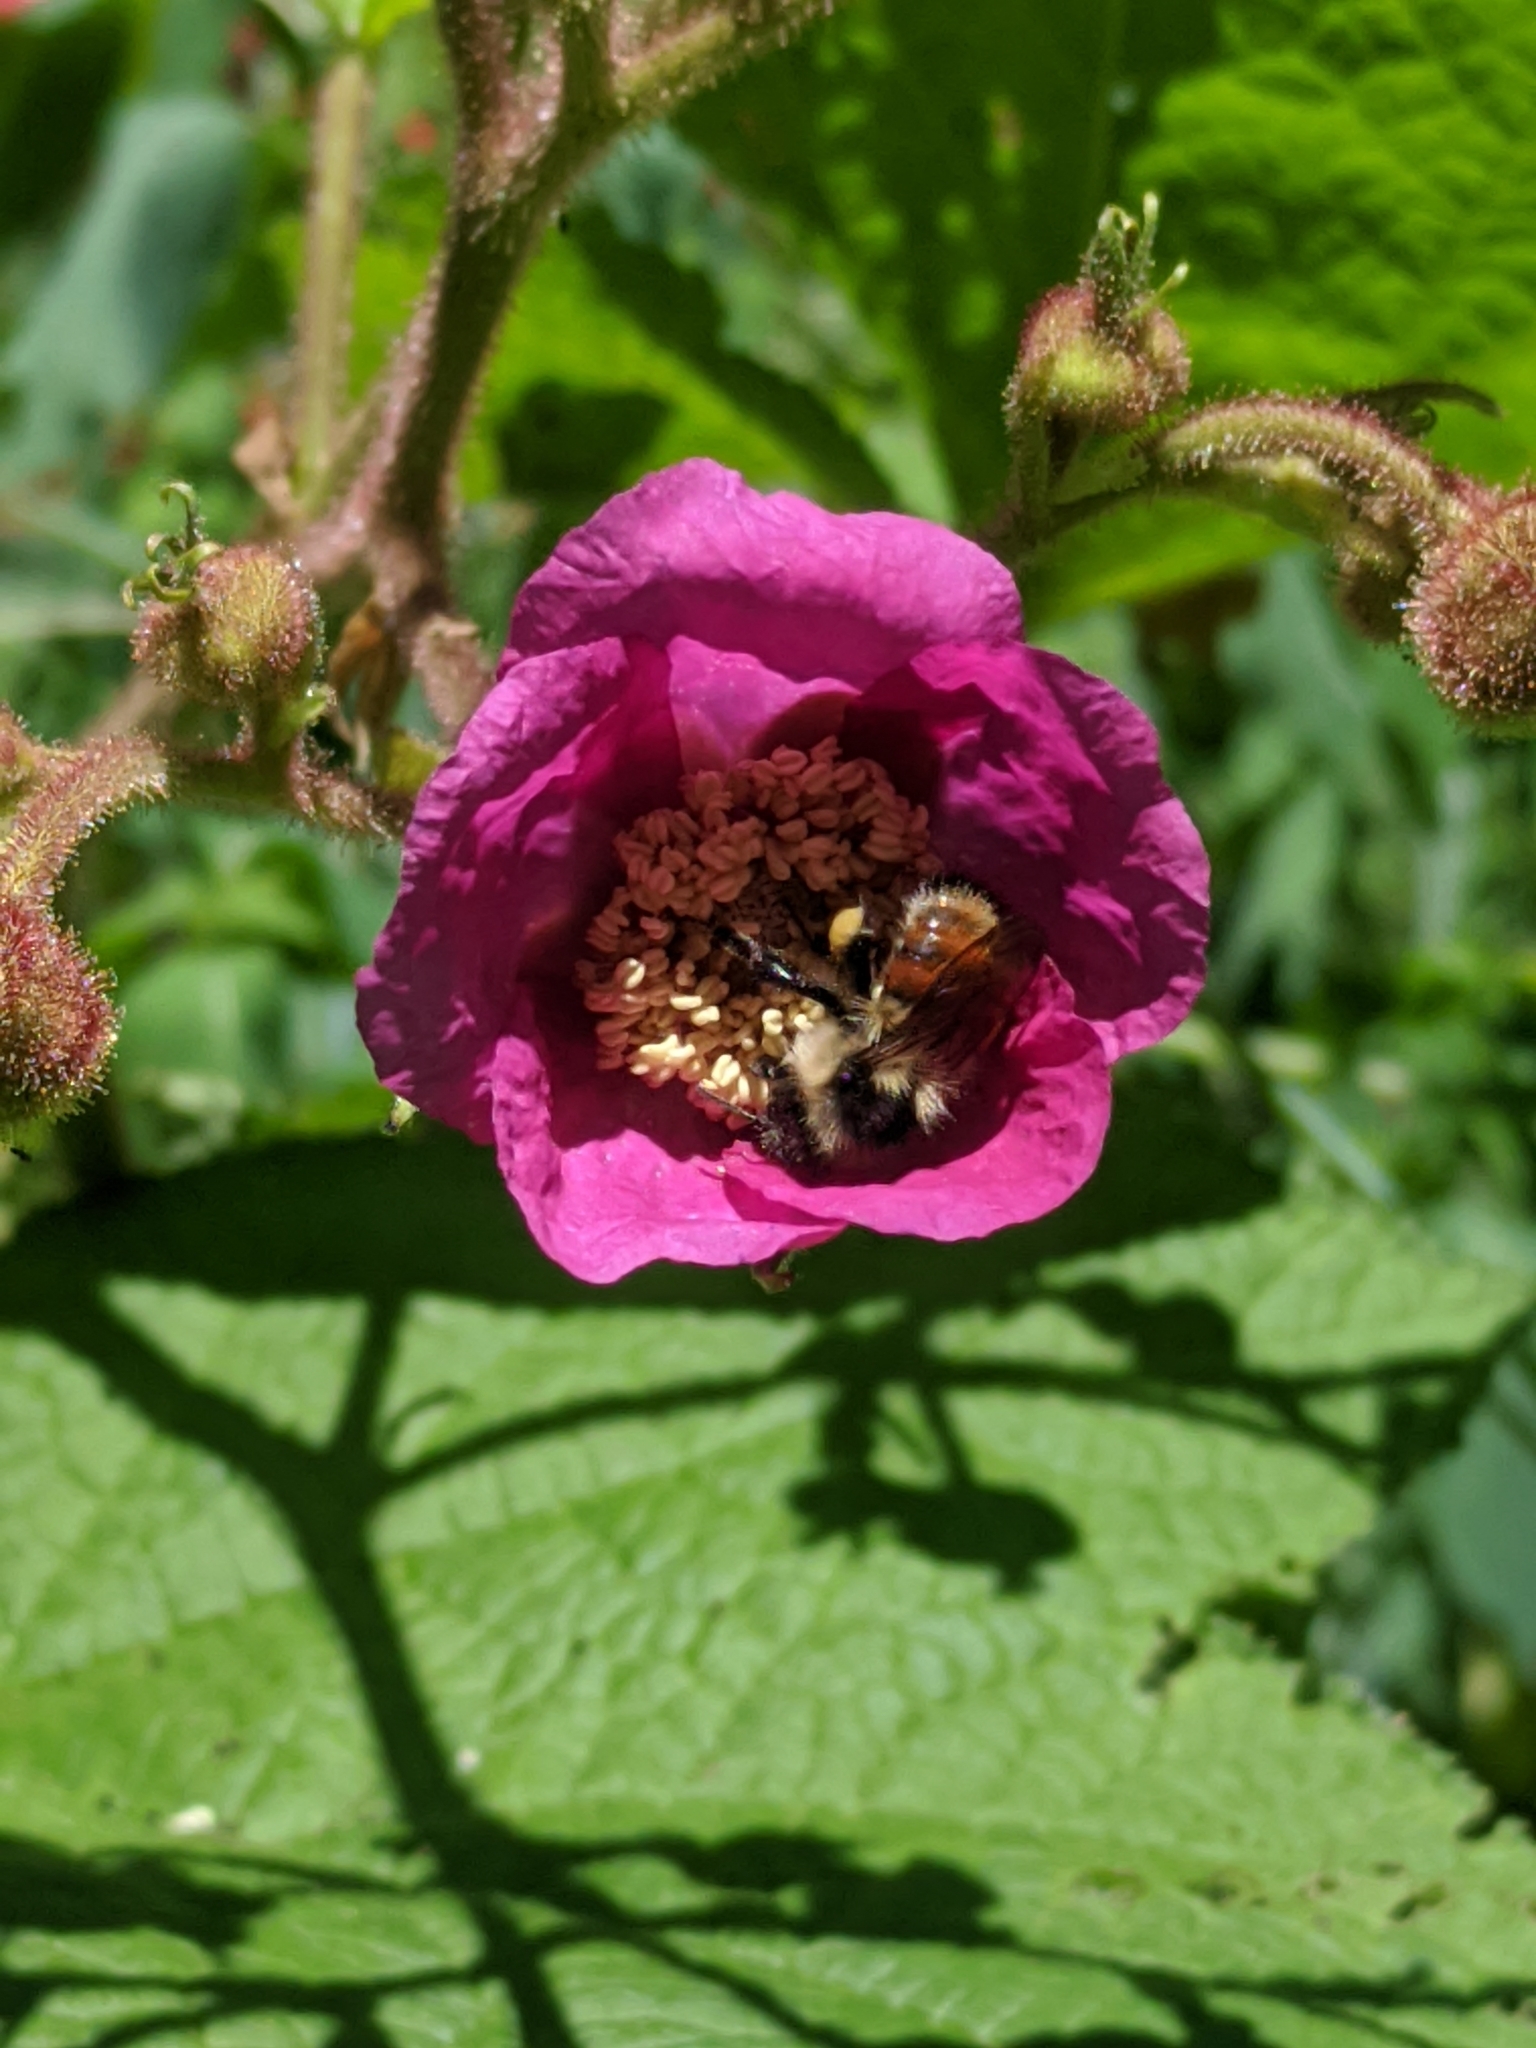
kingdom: Animalia
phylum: Arthropoda
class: Insecta
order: Hymenoptera
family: Apidae
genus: Bombus
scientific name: Bombus ternarius
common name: Tri-colored bumble bee
